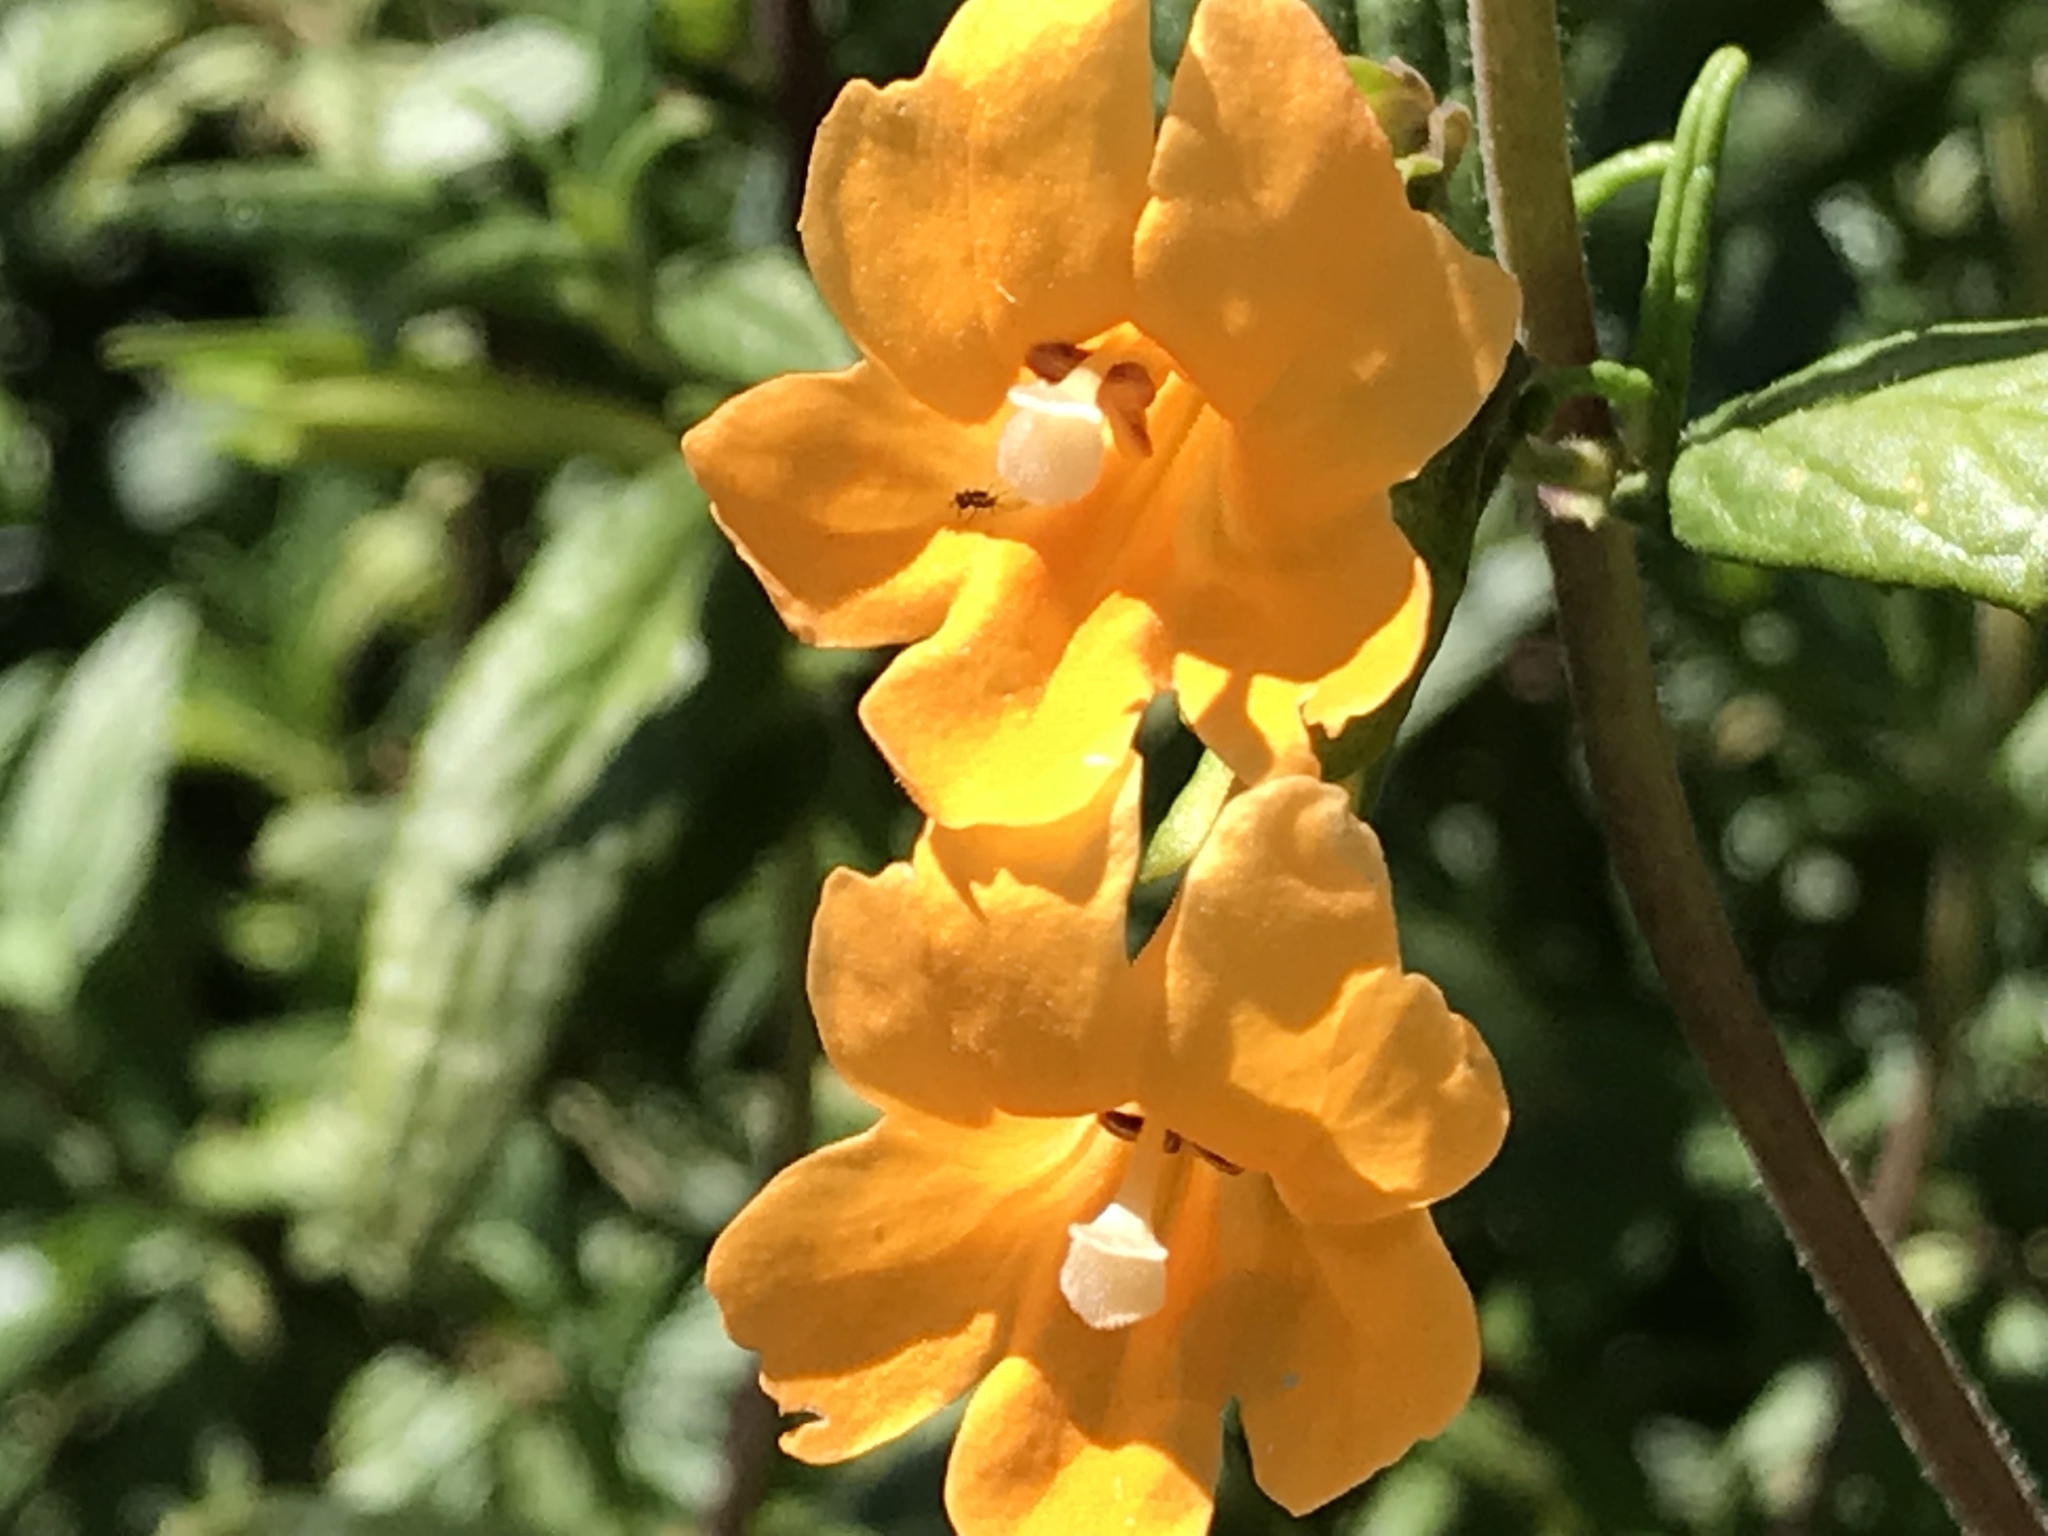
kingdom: Plantae
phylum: Tracheophyta
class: Magnoliopsida
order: Lamiales
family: Phrymaceae
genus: Diplacus
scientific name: Diplacus aurantiacus
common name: Bush monkey-flower
